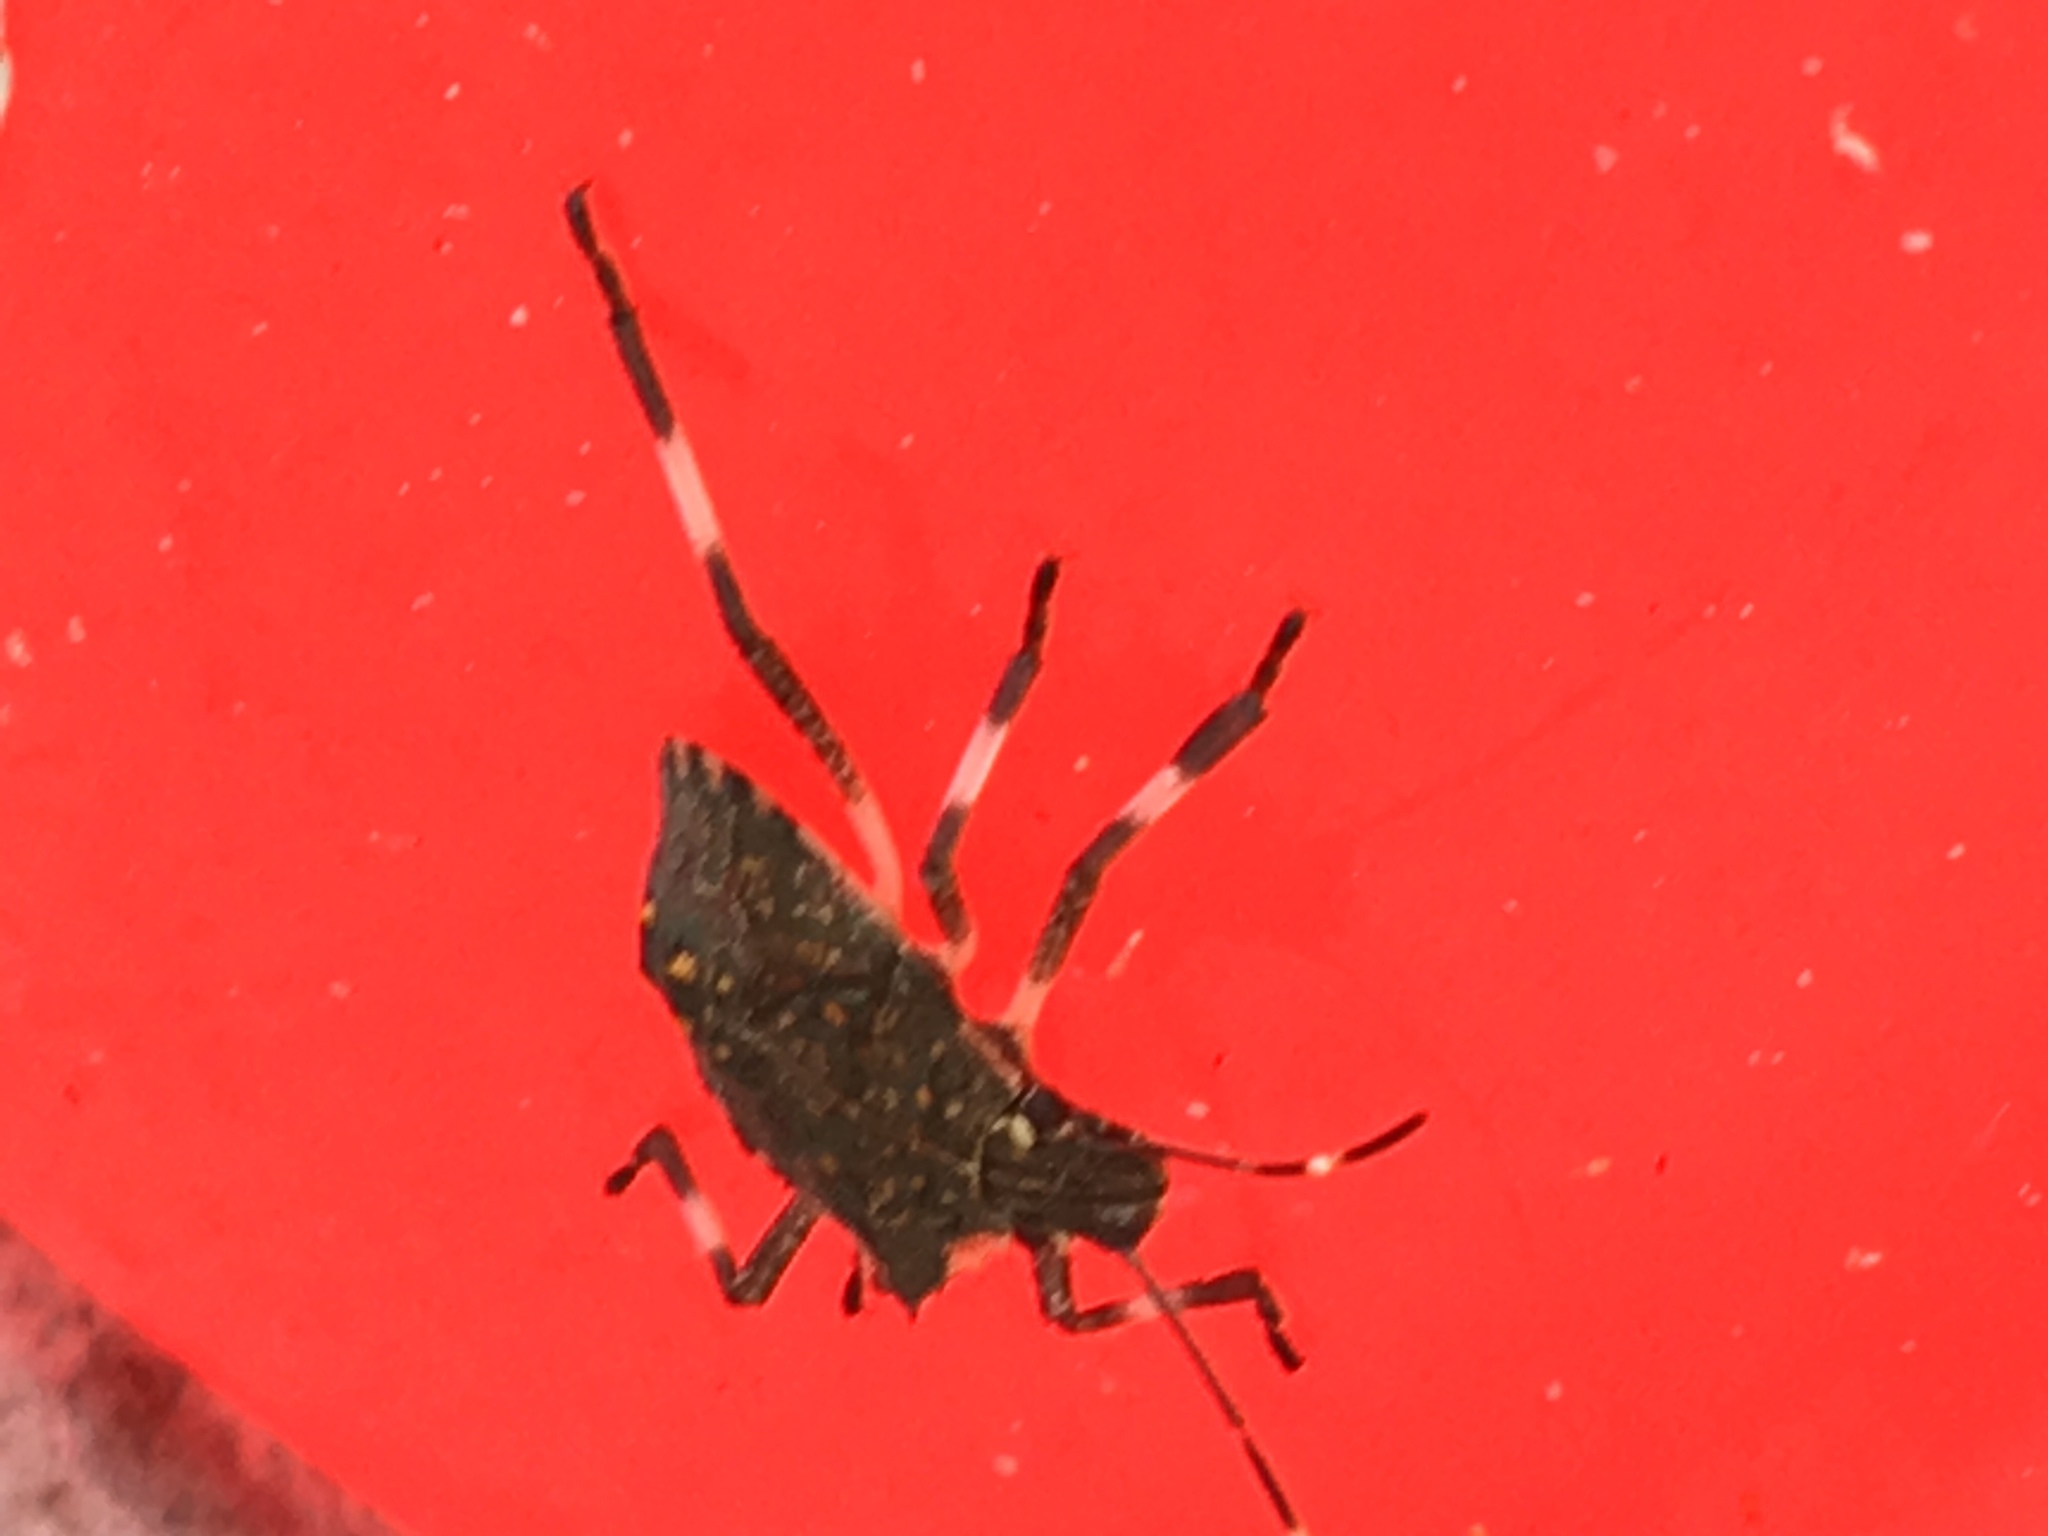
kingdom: Animalia
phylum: Arthropoda
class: Insecta
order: Hemiptera
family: Pentatomidae
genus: Halyomorpha
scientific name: Halyomorpha halys
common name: Brown marmorated stink bug
